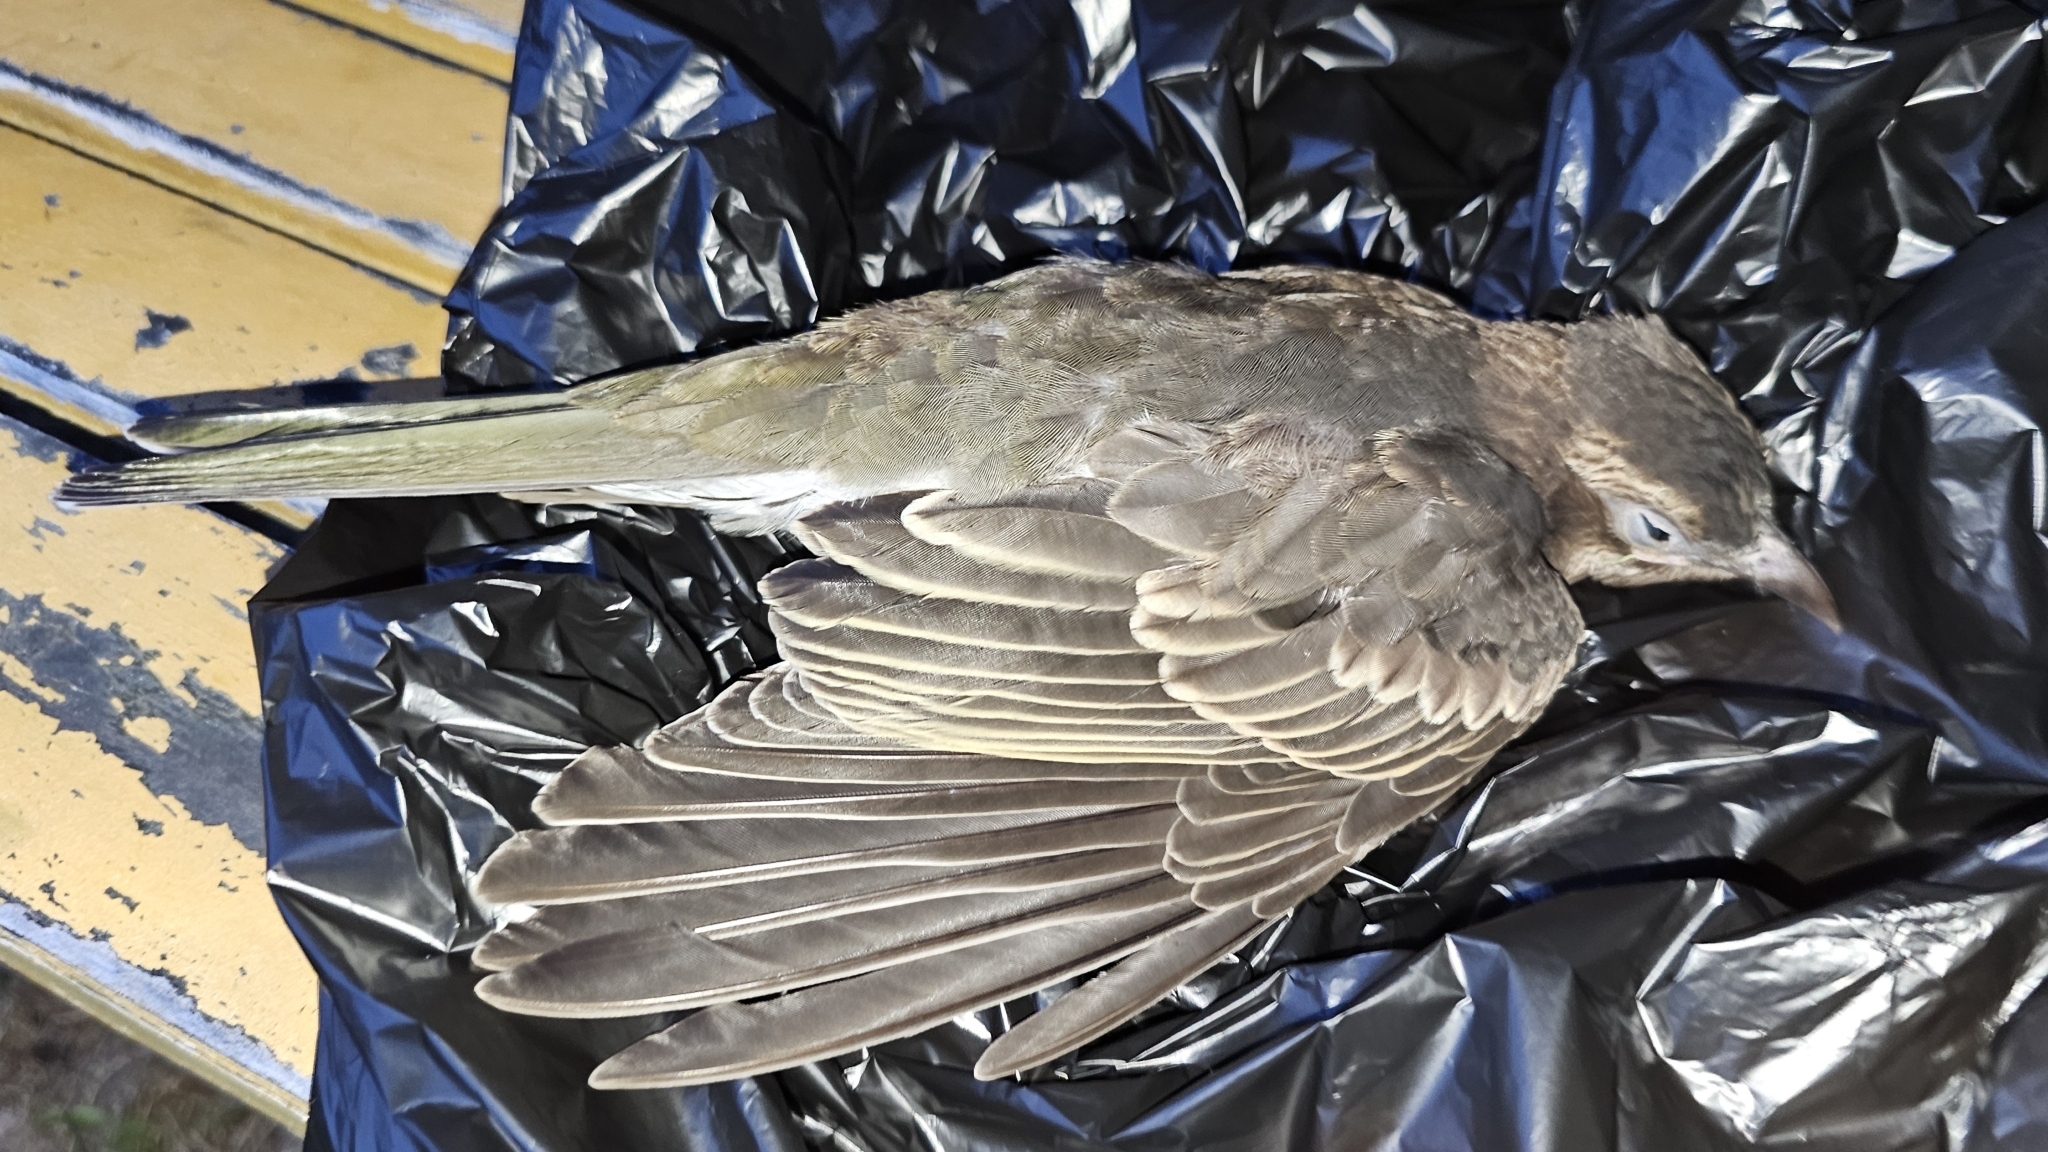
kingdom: Animalia
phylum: Chordata
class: Aves
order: Passeriformes
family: Oriolidae
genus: Sphecotheres
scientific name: Sphecotheres vieilloti
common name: Australasian figbird
